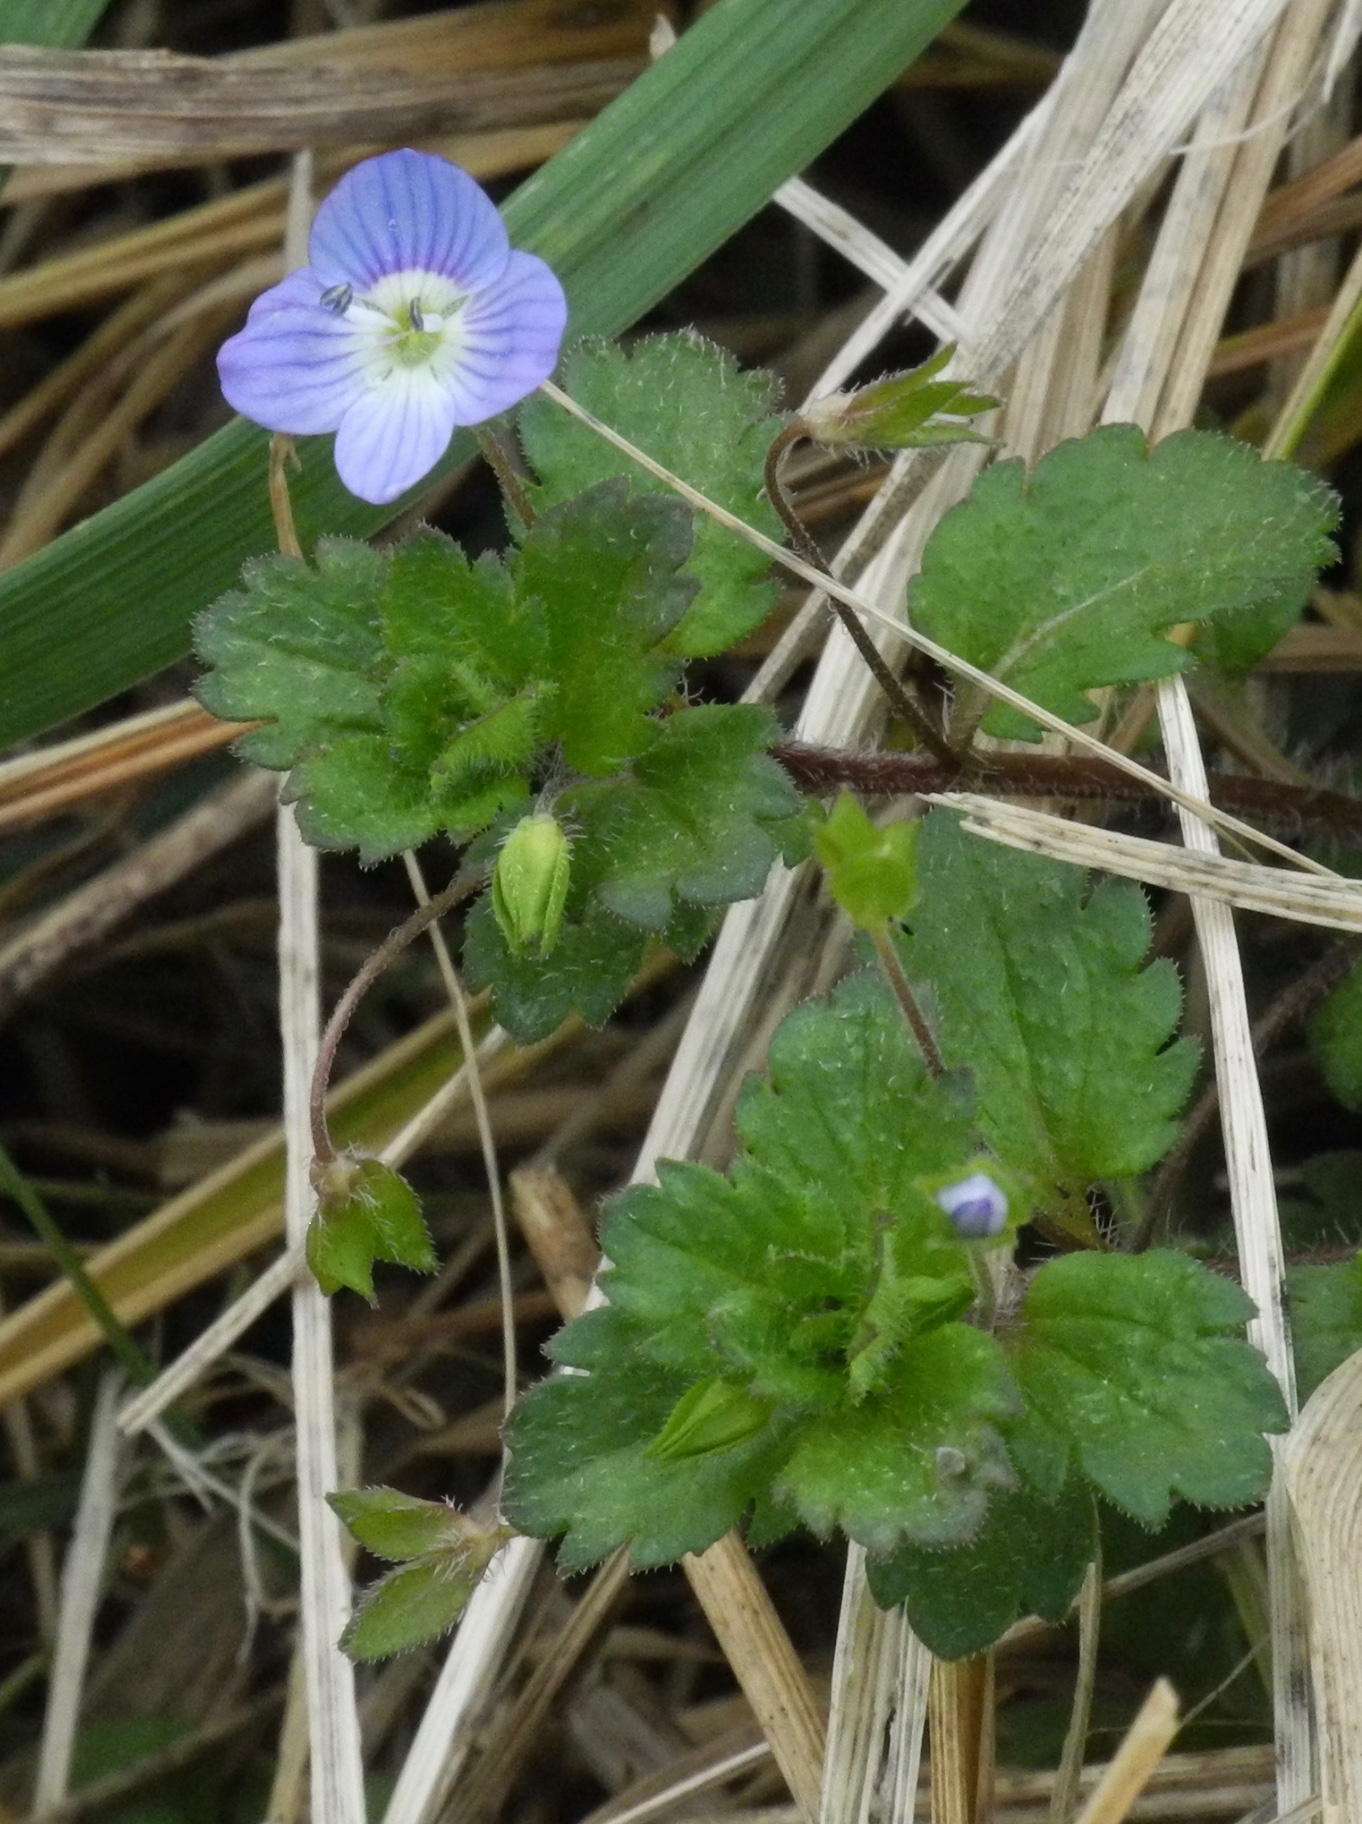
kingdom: Plantae
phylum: Tracheophyta
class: Magnoliopsida
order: Lamiales
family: Plantaginaceae
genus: Veronica
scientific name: Veronica persica
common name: Common field-speedwell
